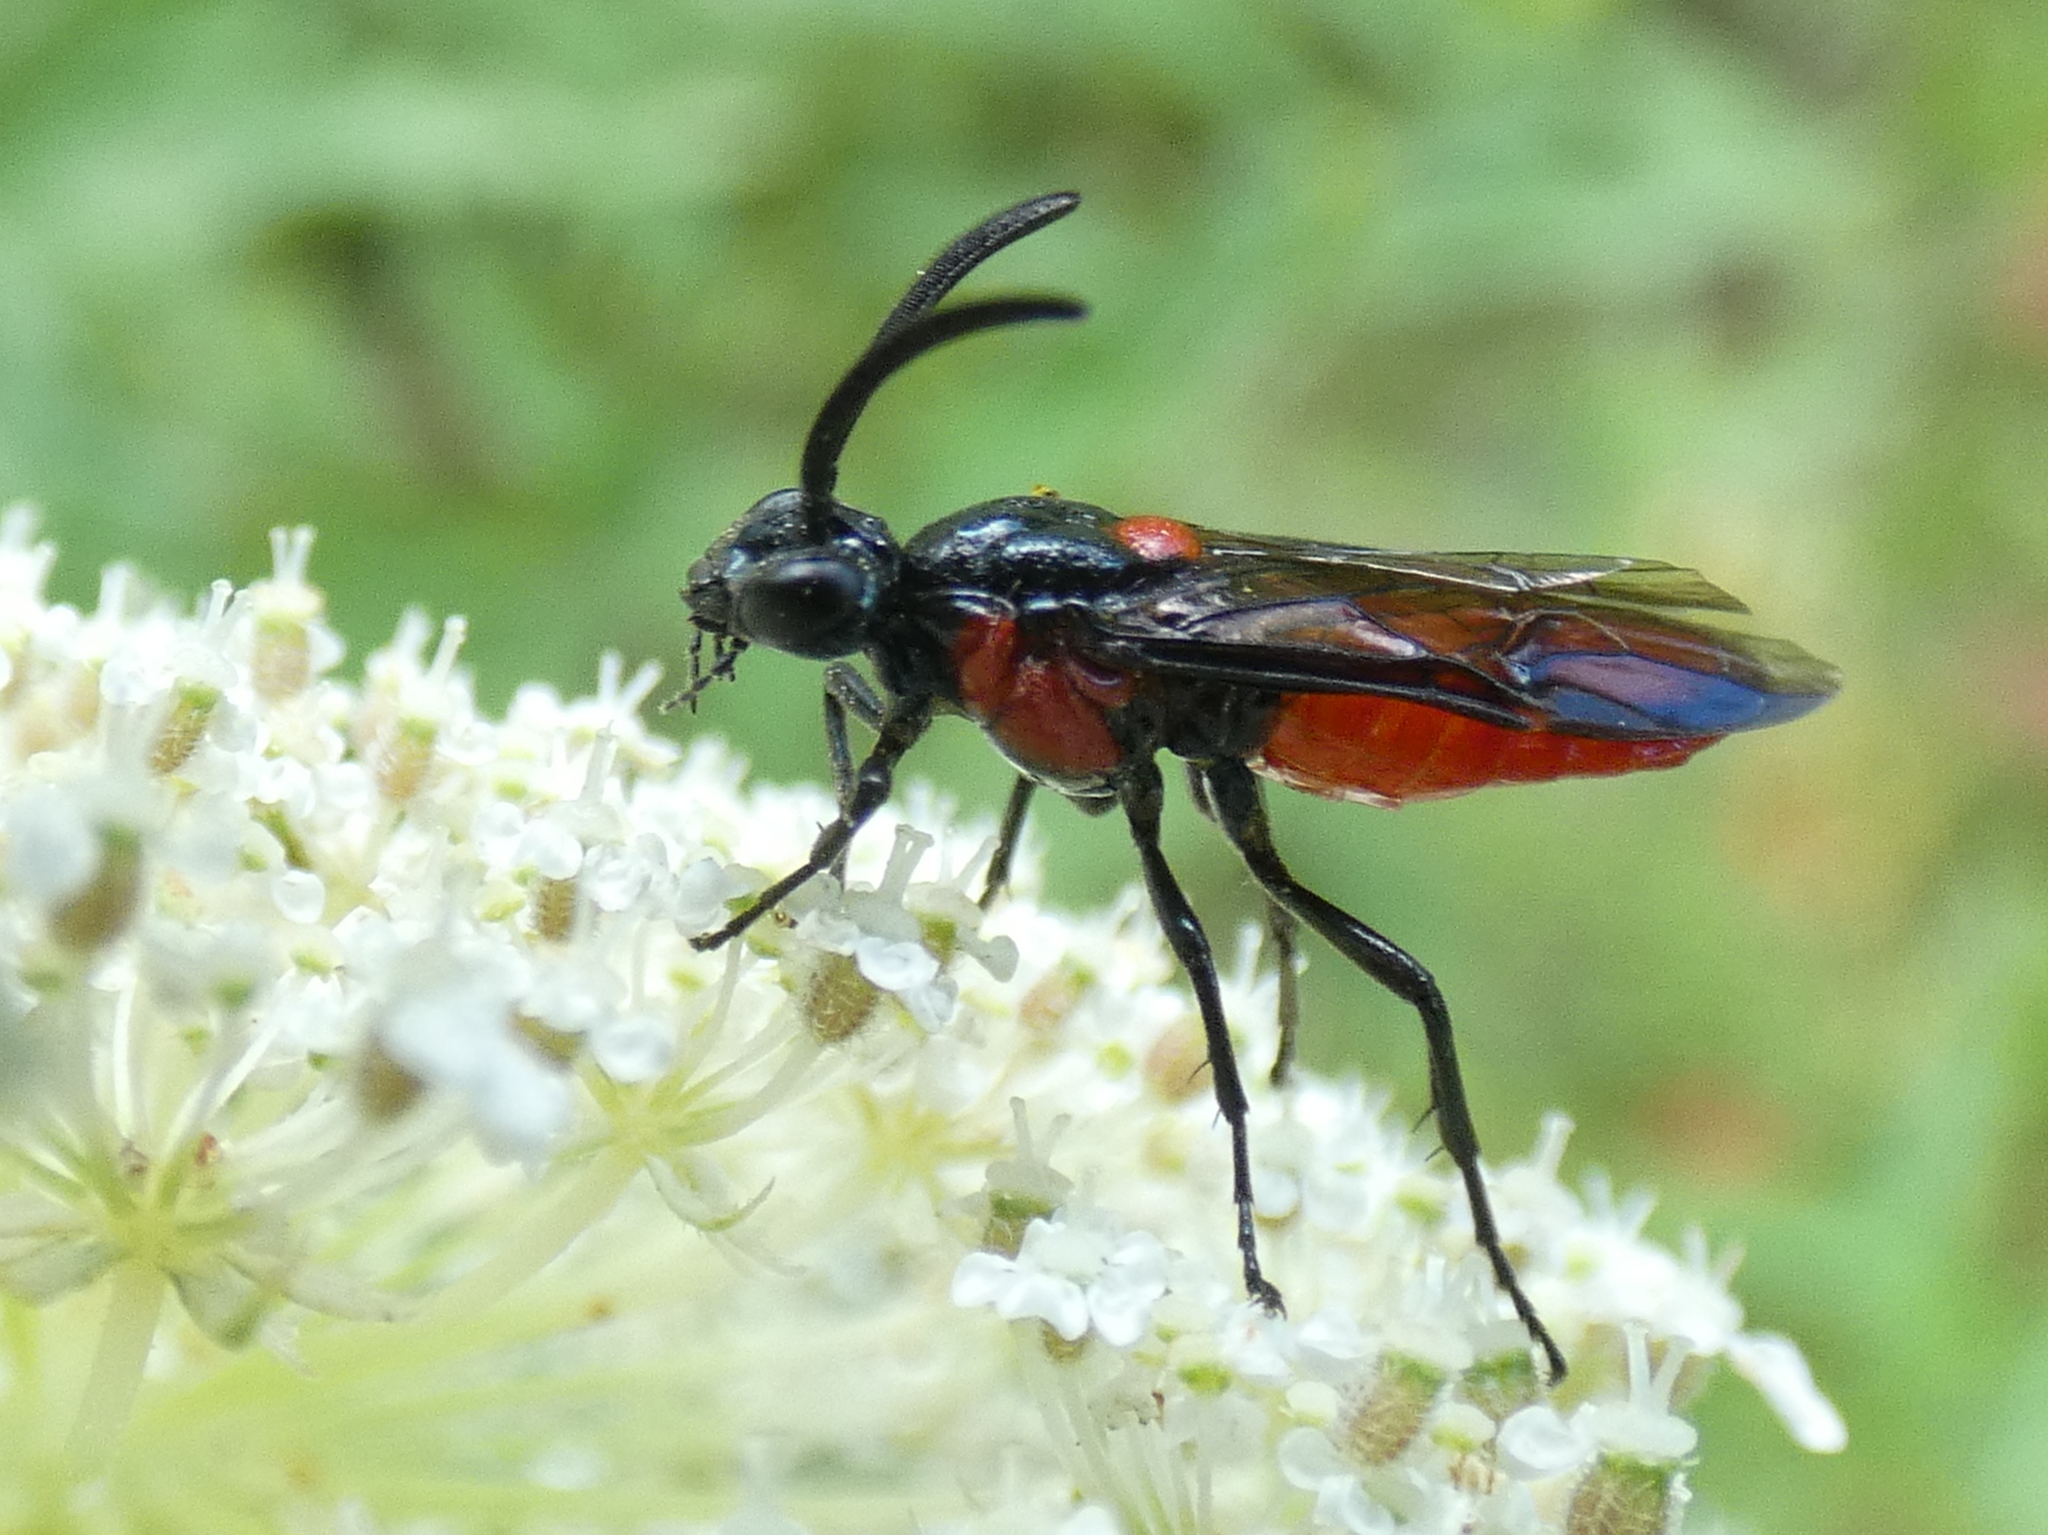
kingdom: Animalia
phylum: Arthropoda
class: Insecta
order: Hymenoptera
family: Argidae
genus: Arge
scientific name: Arge humeralis
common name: Poison ivy sawfly
